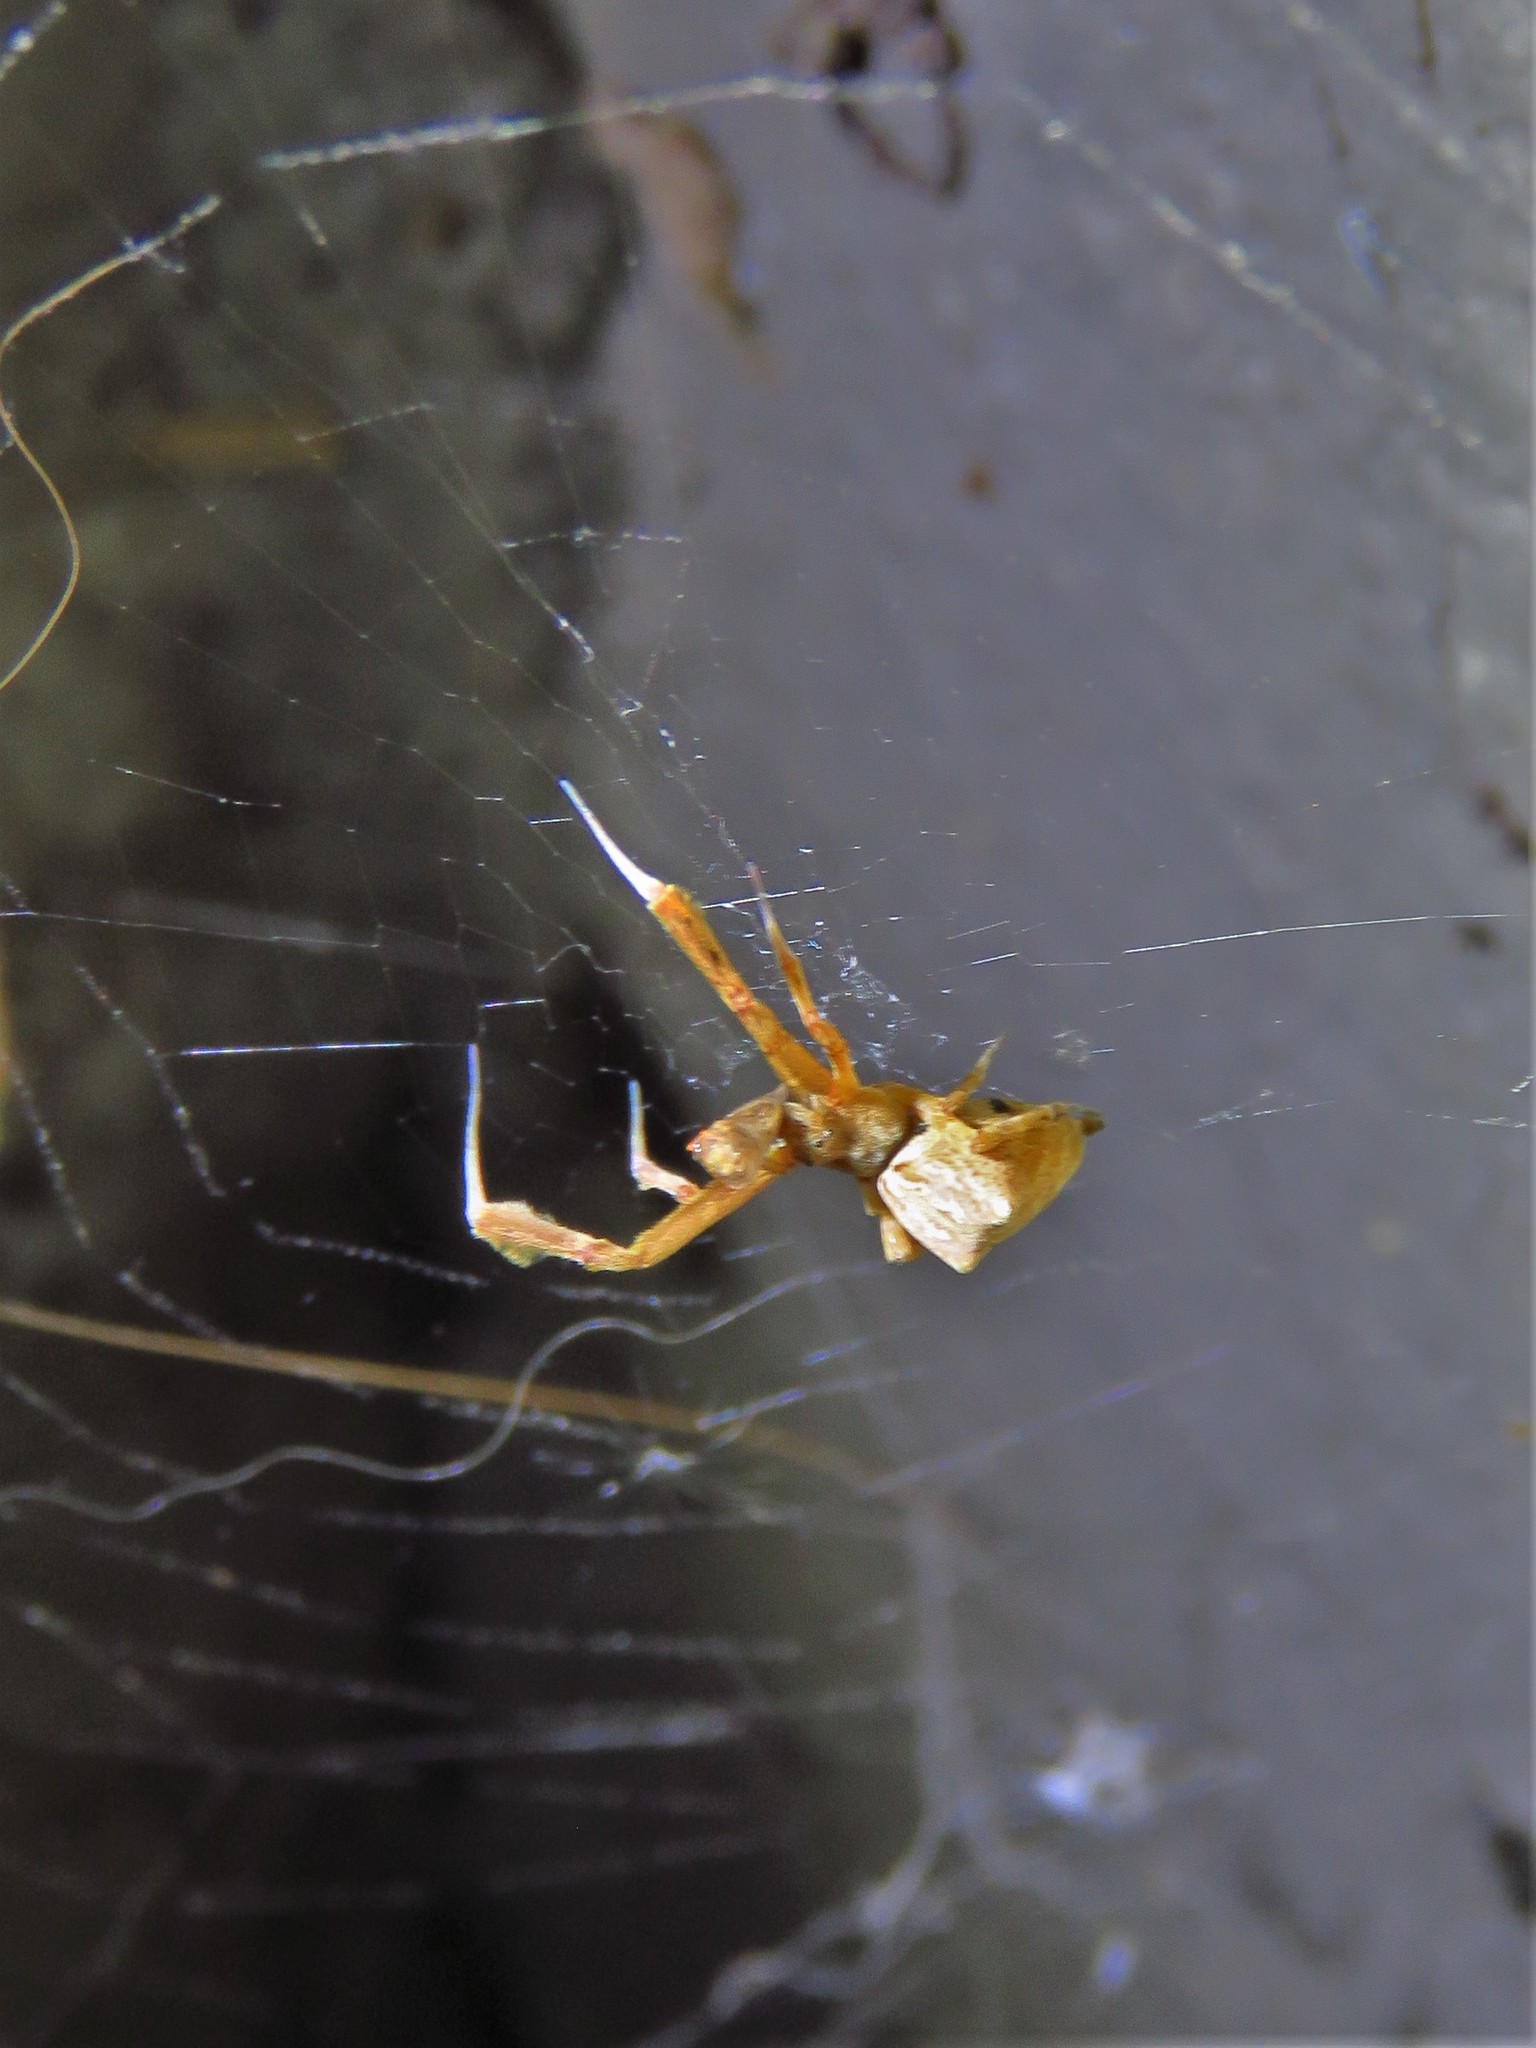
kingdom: Animalia
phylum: Arthropoda
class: Arachnida
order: Araneae
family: Uloboridae
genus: Uloborus
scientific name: Uloborus glomosus
